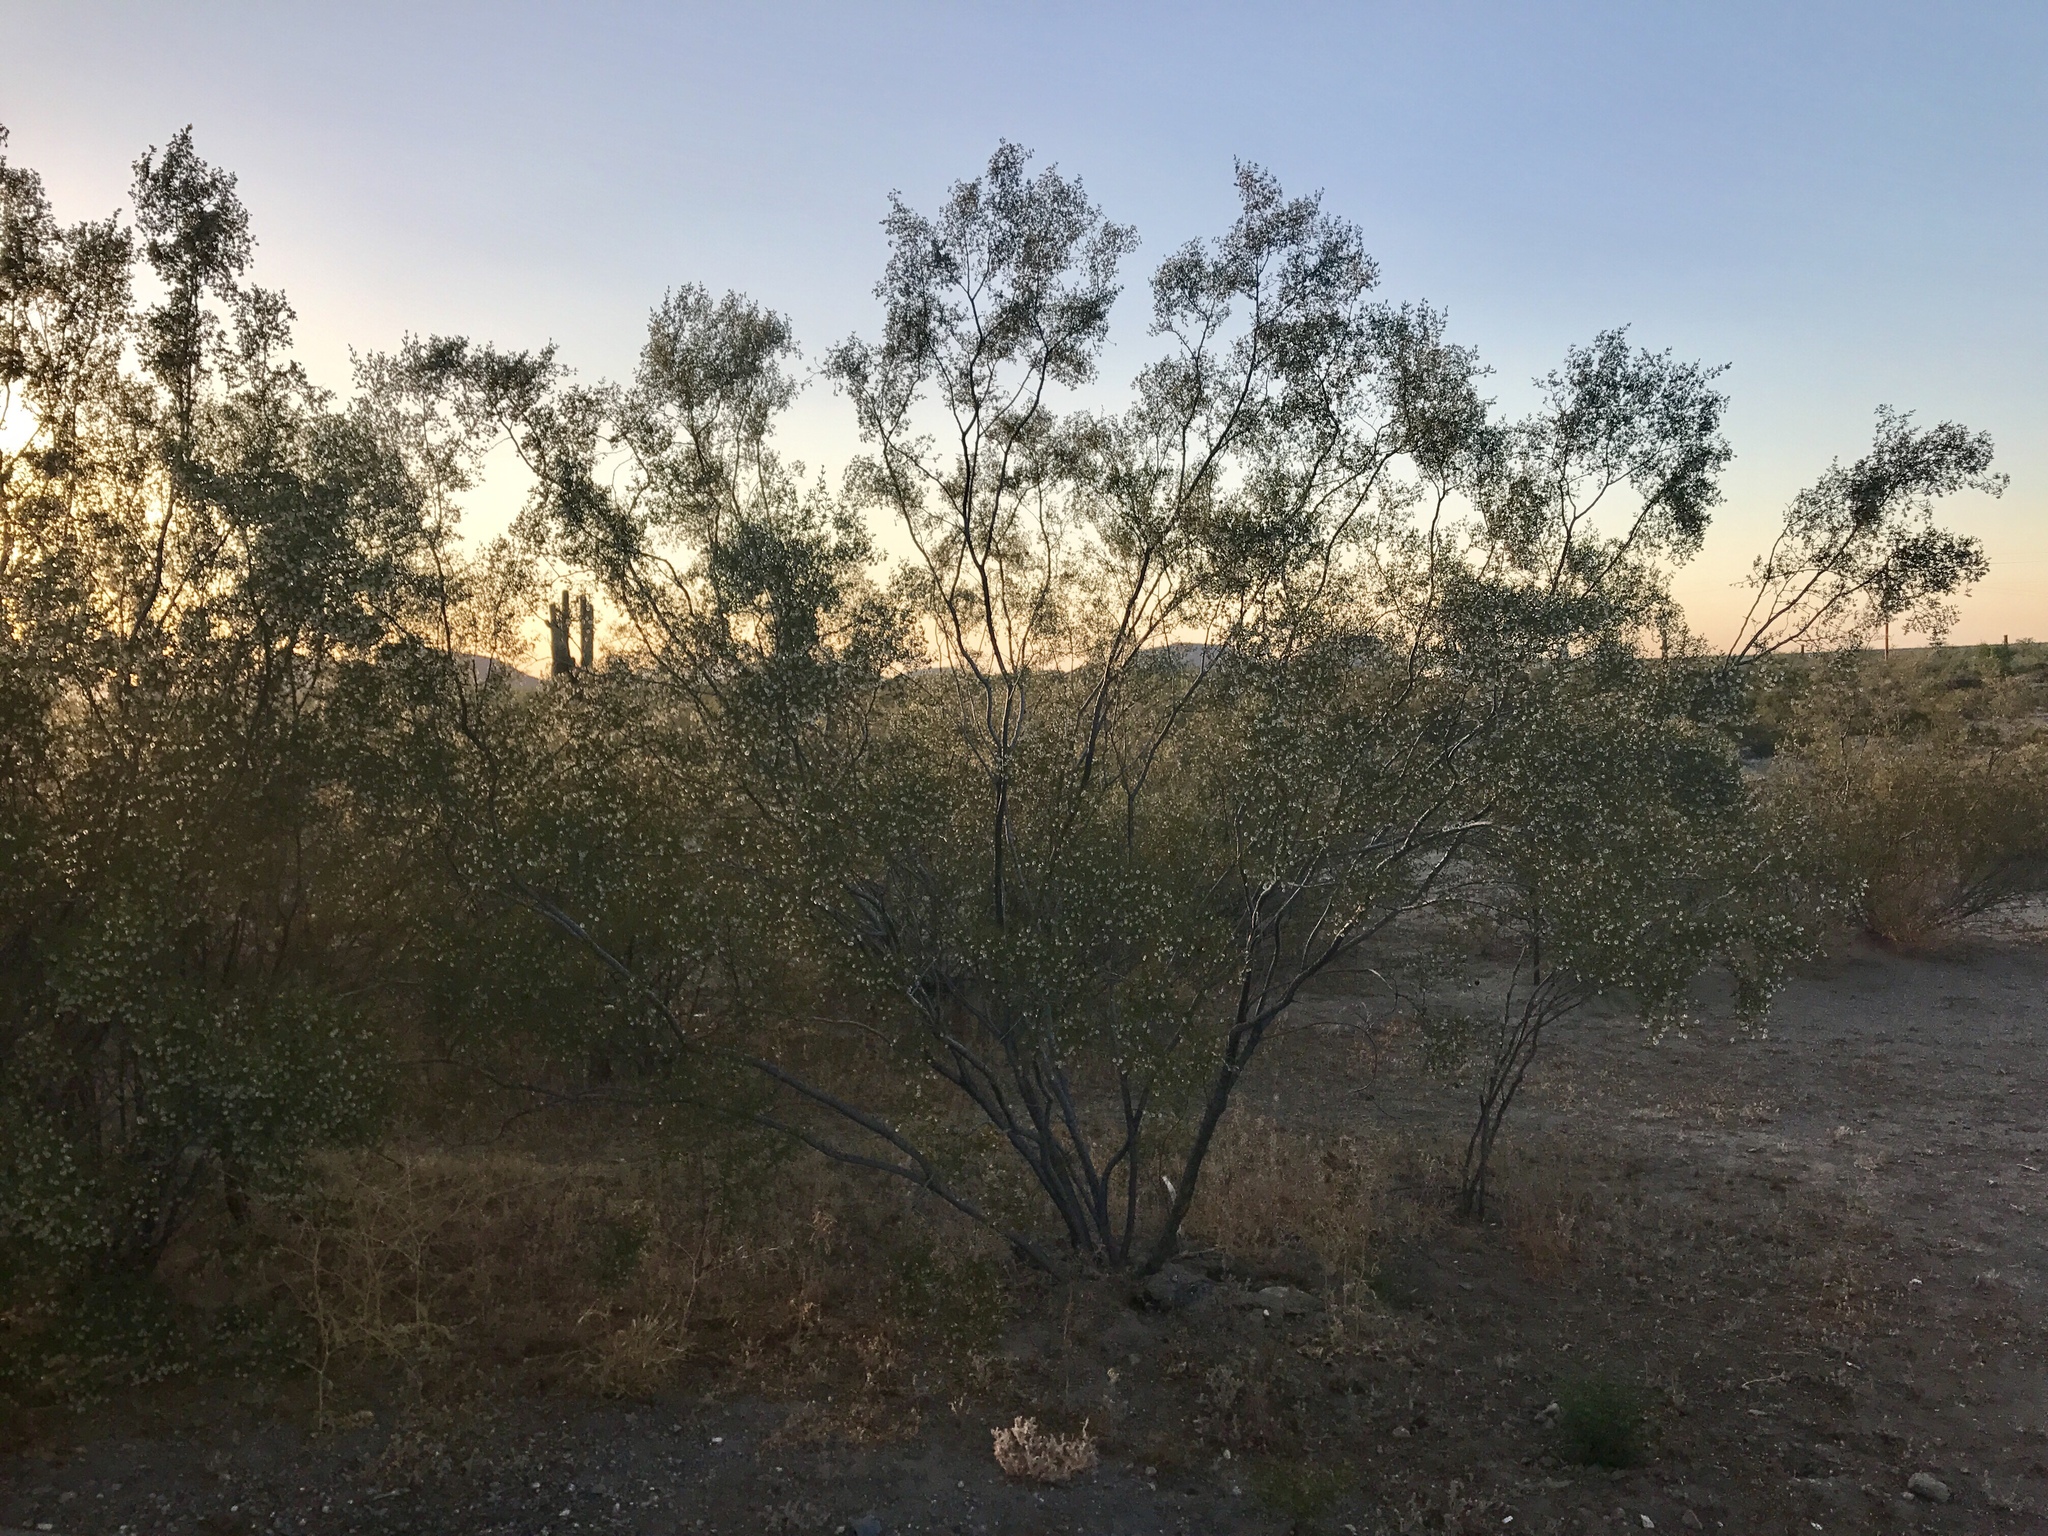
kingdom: Plantae
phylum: Tracheophyta
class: Magnoliopsida
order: Zygophyllales
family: Zygophyllaceae
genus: Larrea
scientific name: Larrea tridentata
